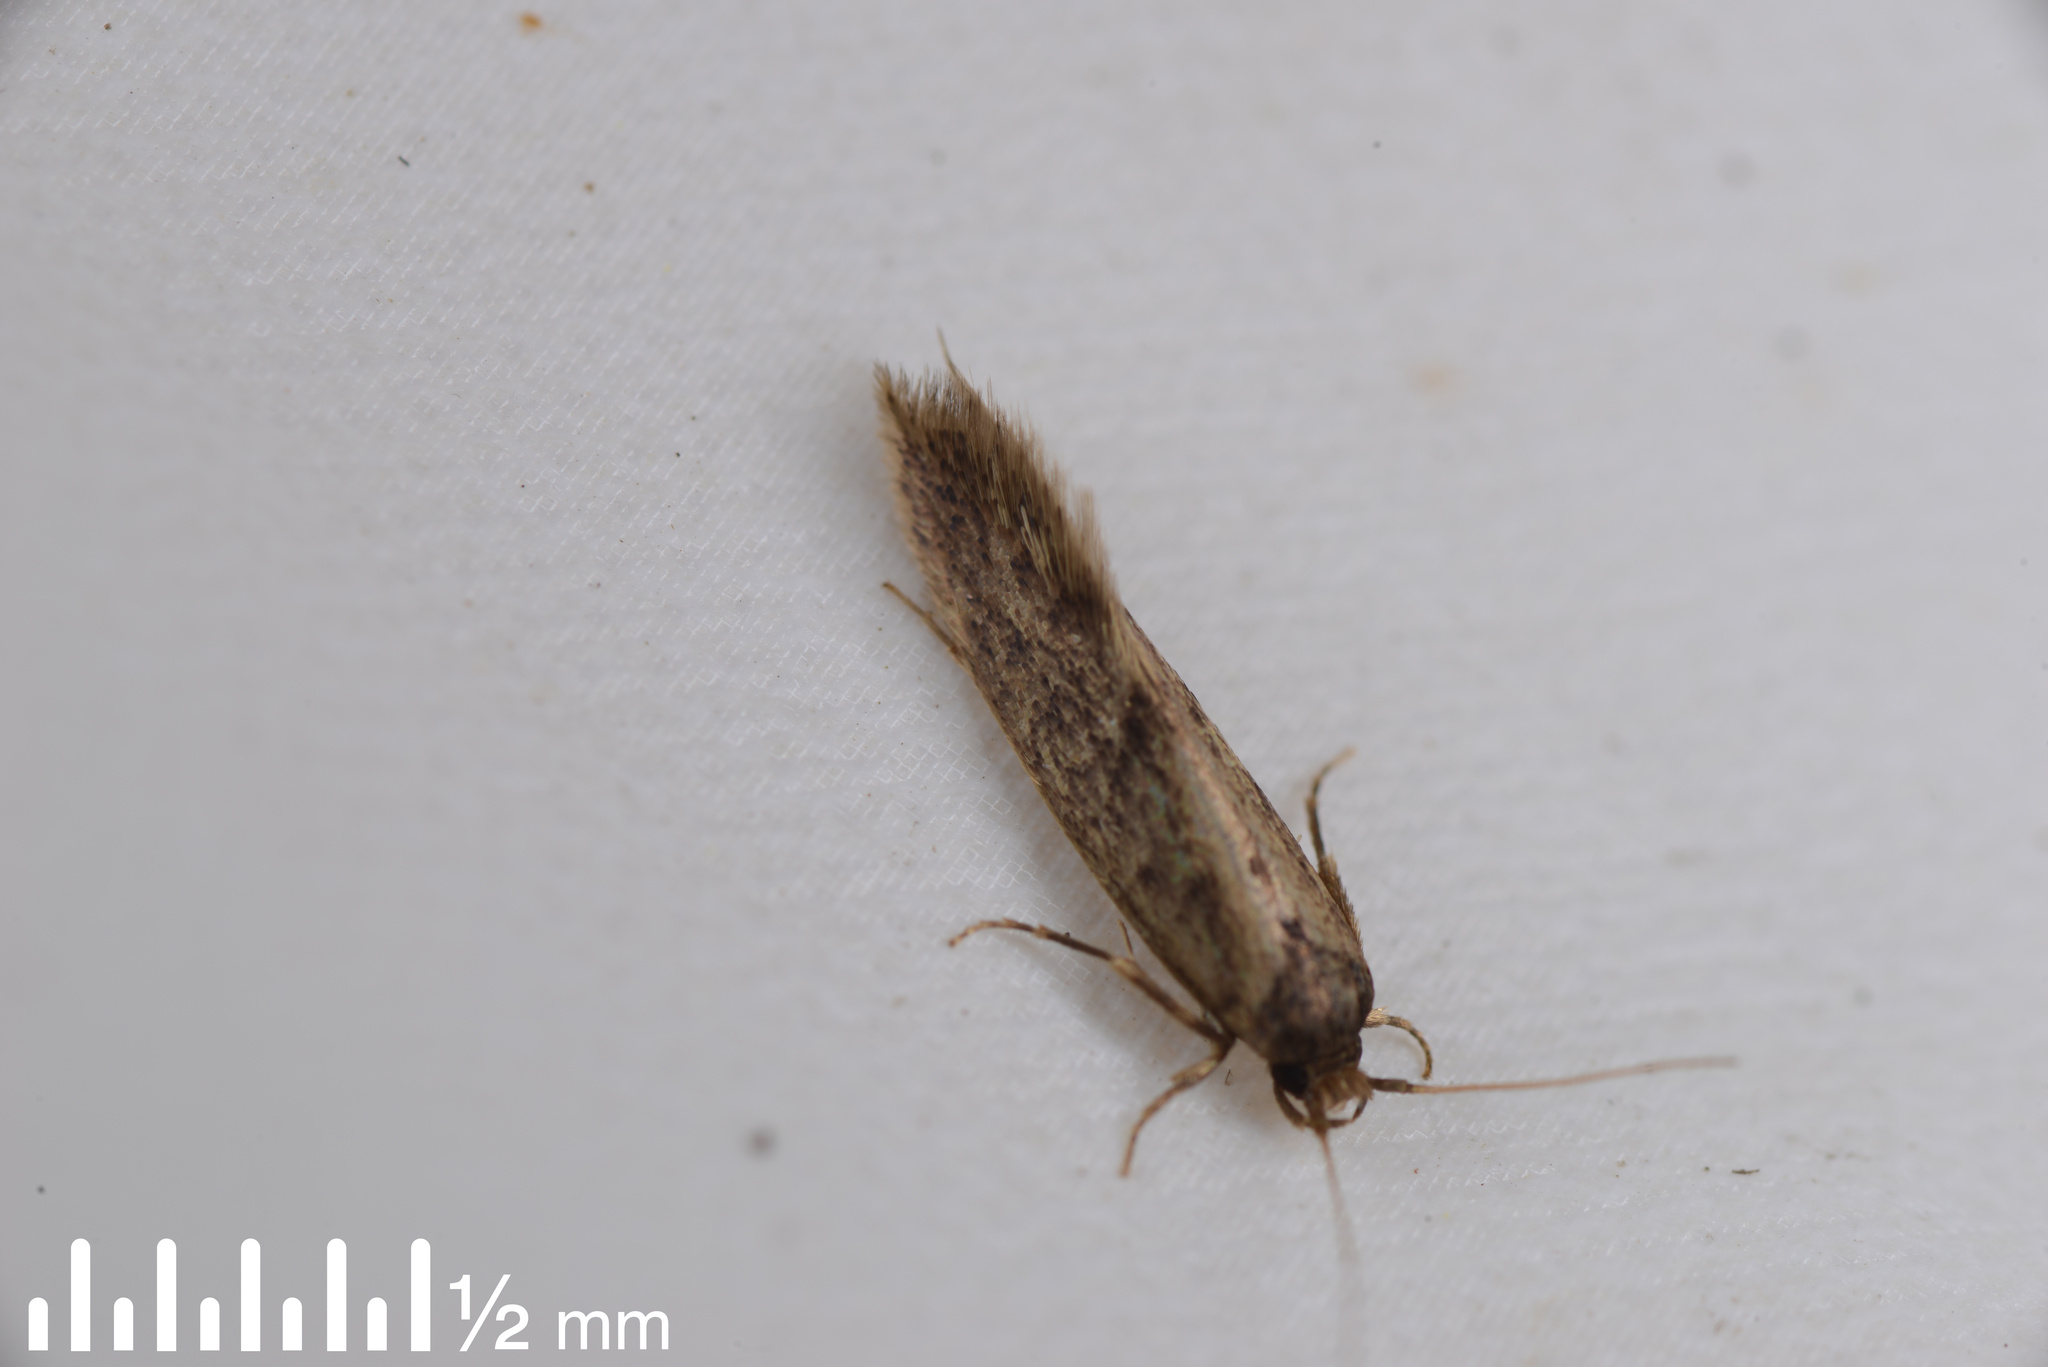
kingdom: Animalia
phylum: Arthropoda
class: Insecta
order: Lepidoptera
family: Tineidae
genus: Opogona
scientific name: Opogona omoscopa
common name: Moth
